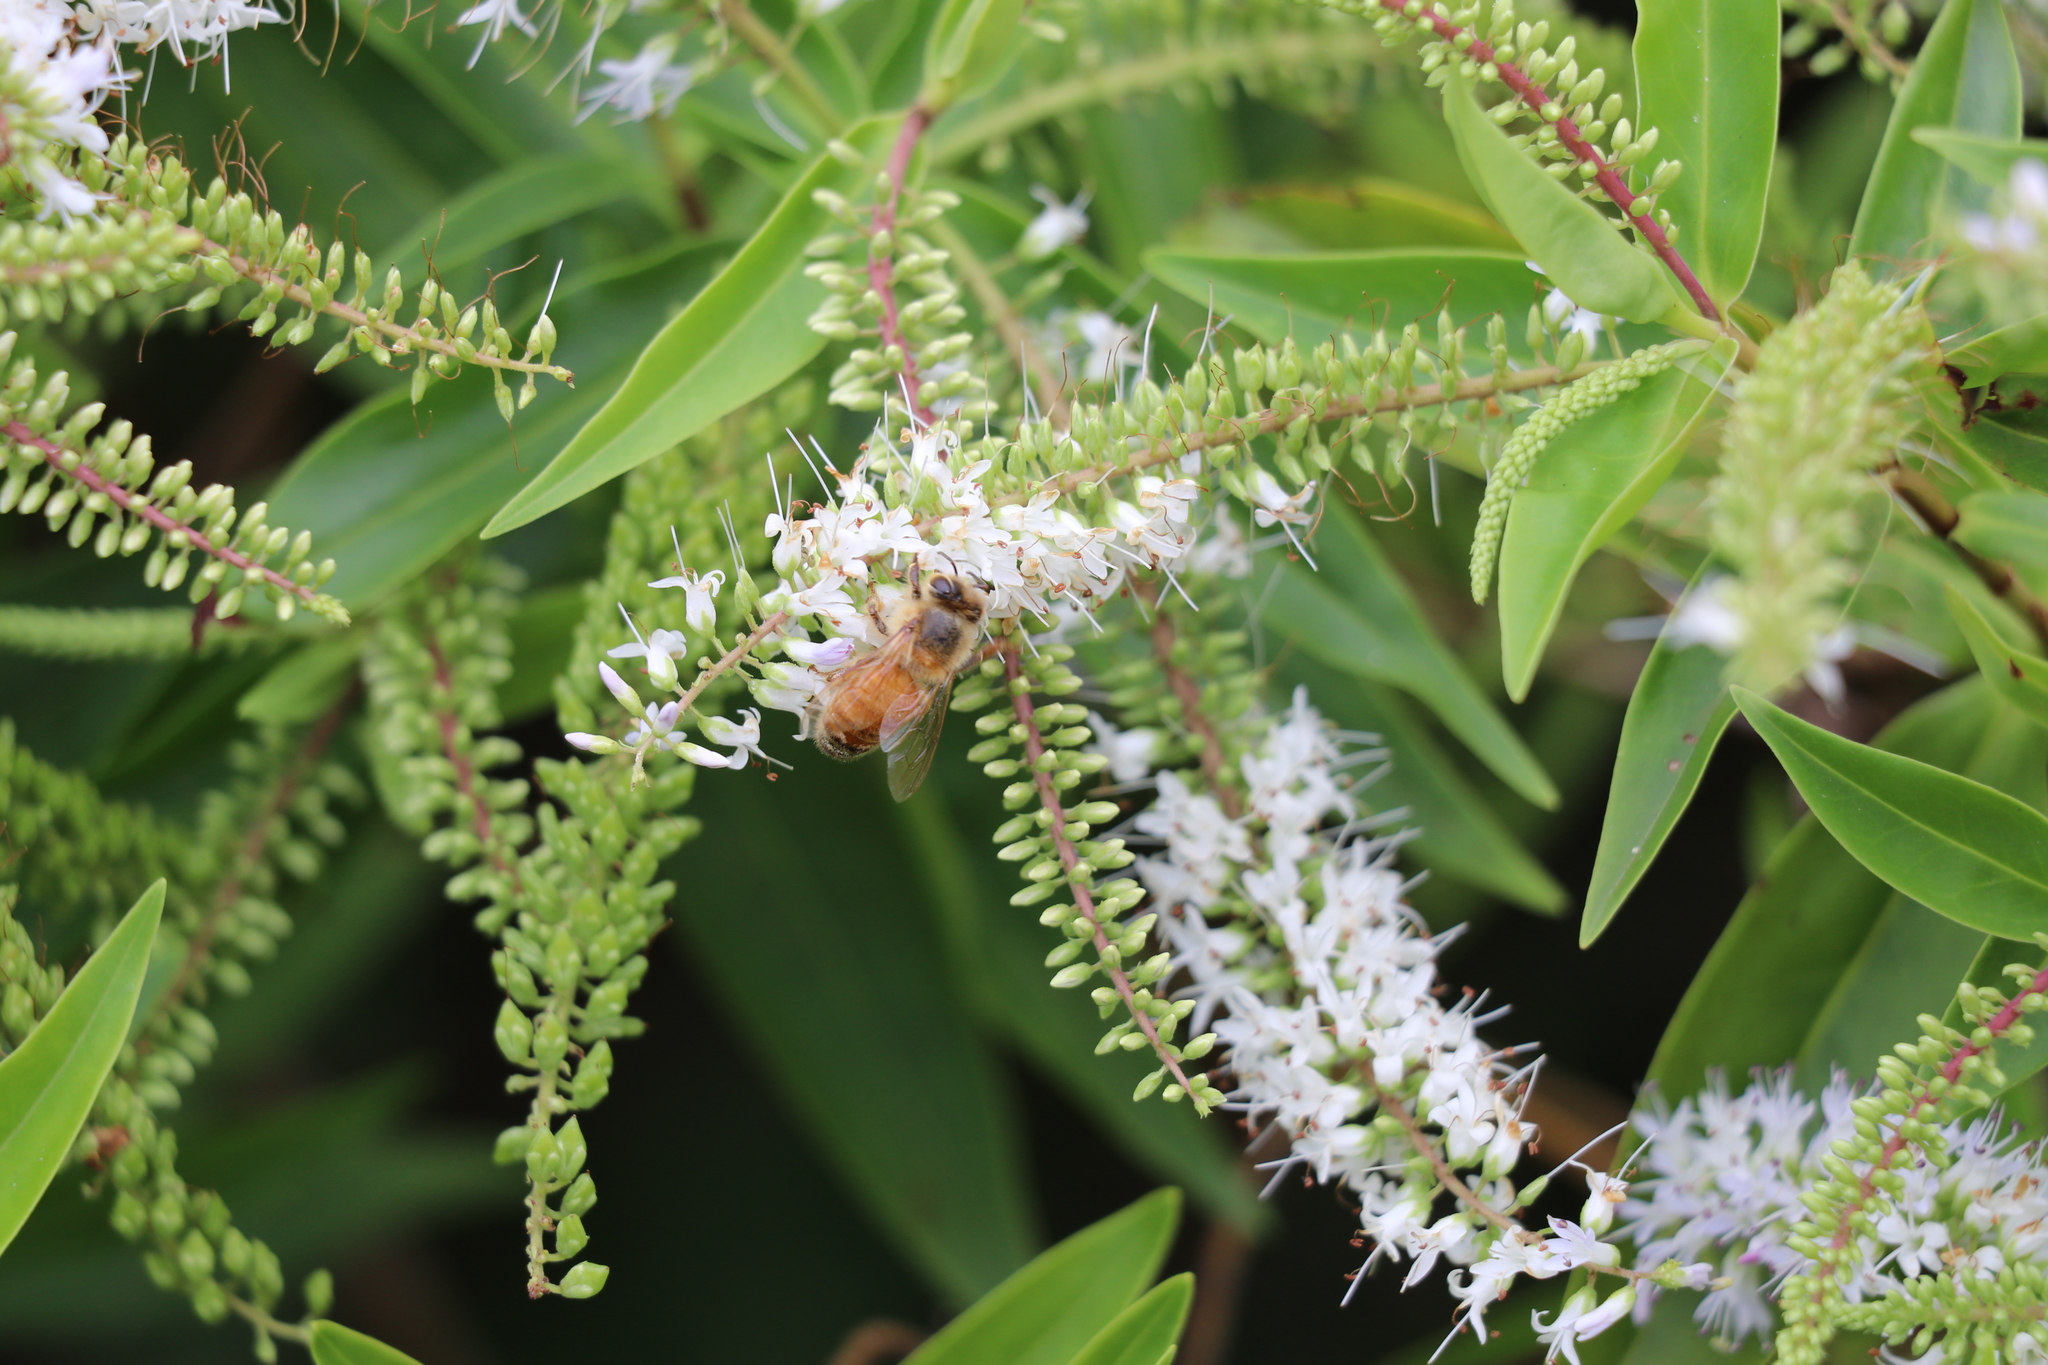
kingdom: Animalia
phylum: Arthropoda
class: Insecta
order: Hymenoptera
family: Apidae
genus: Apis
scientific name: Apis mellifera
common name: Honey bee
